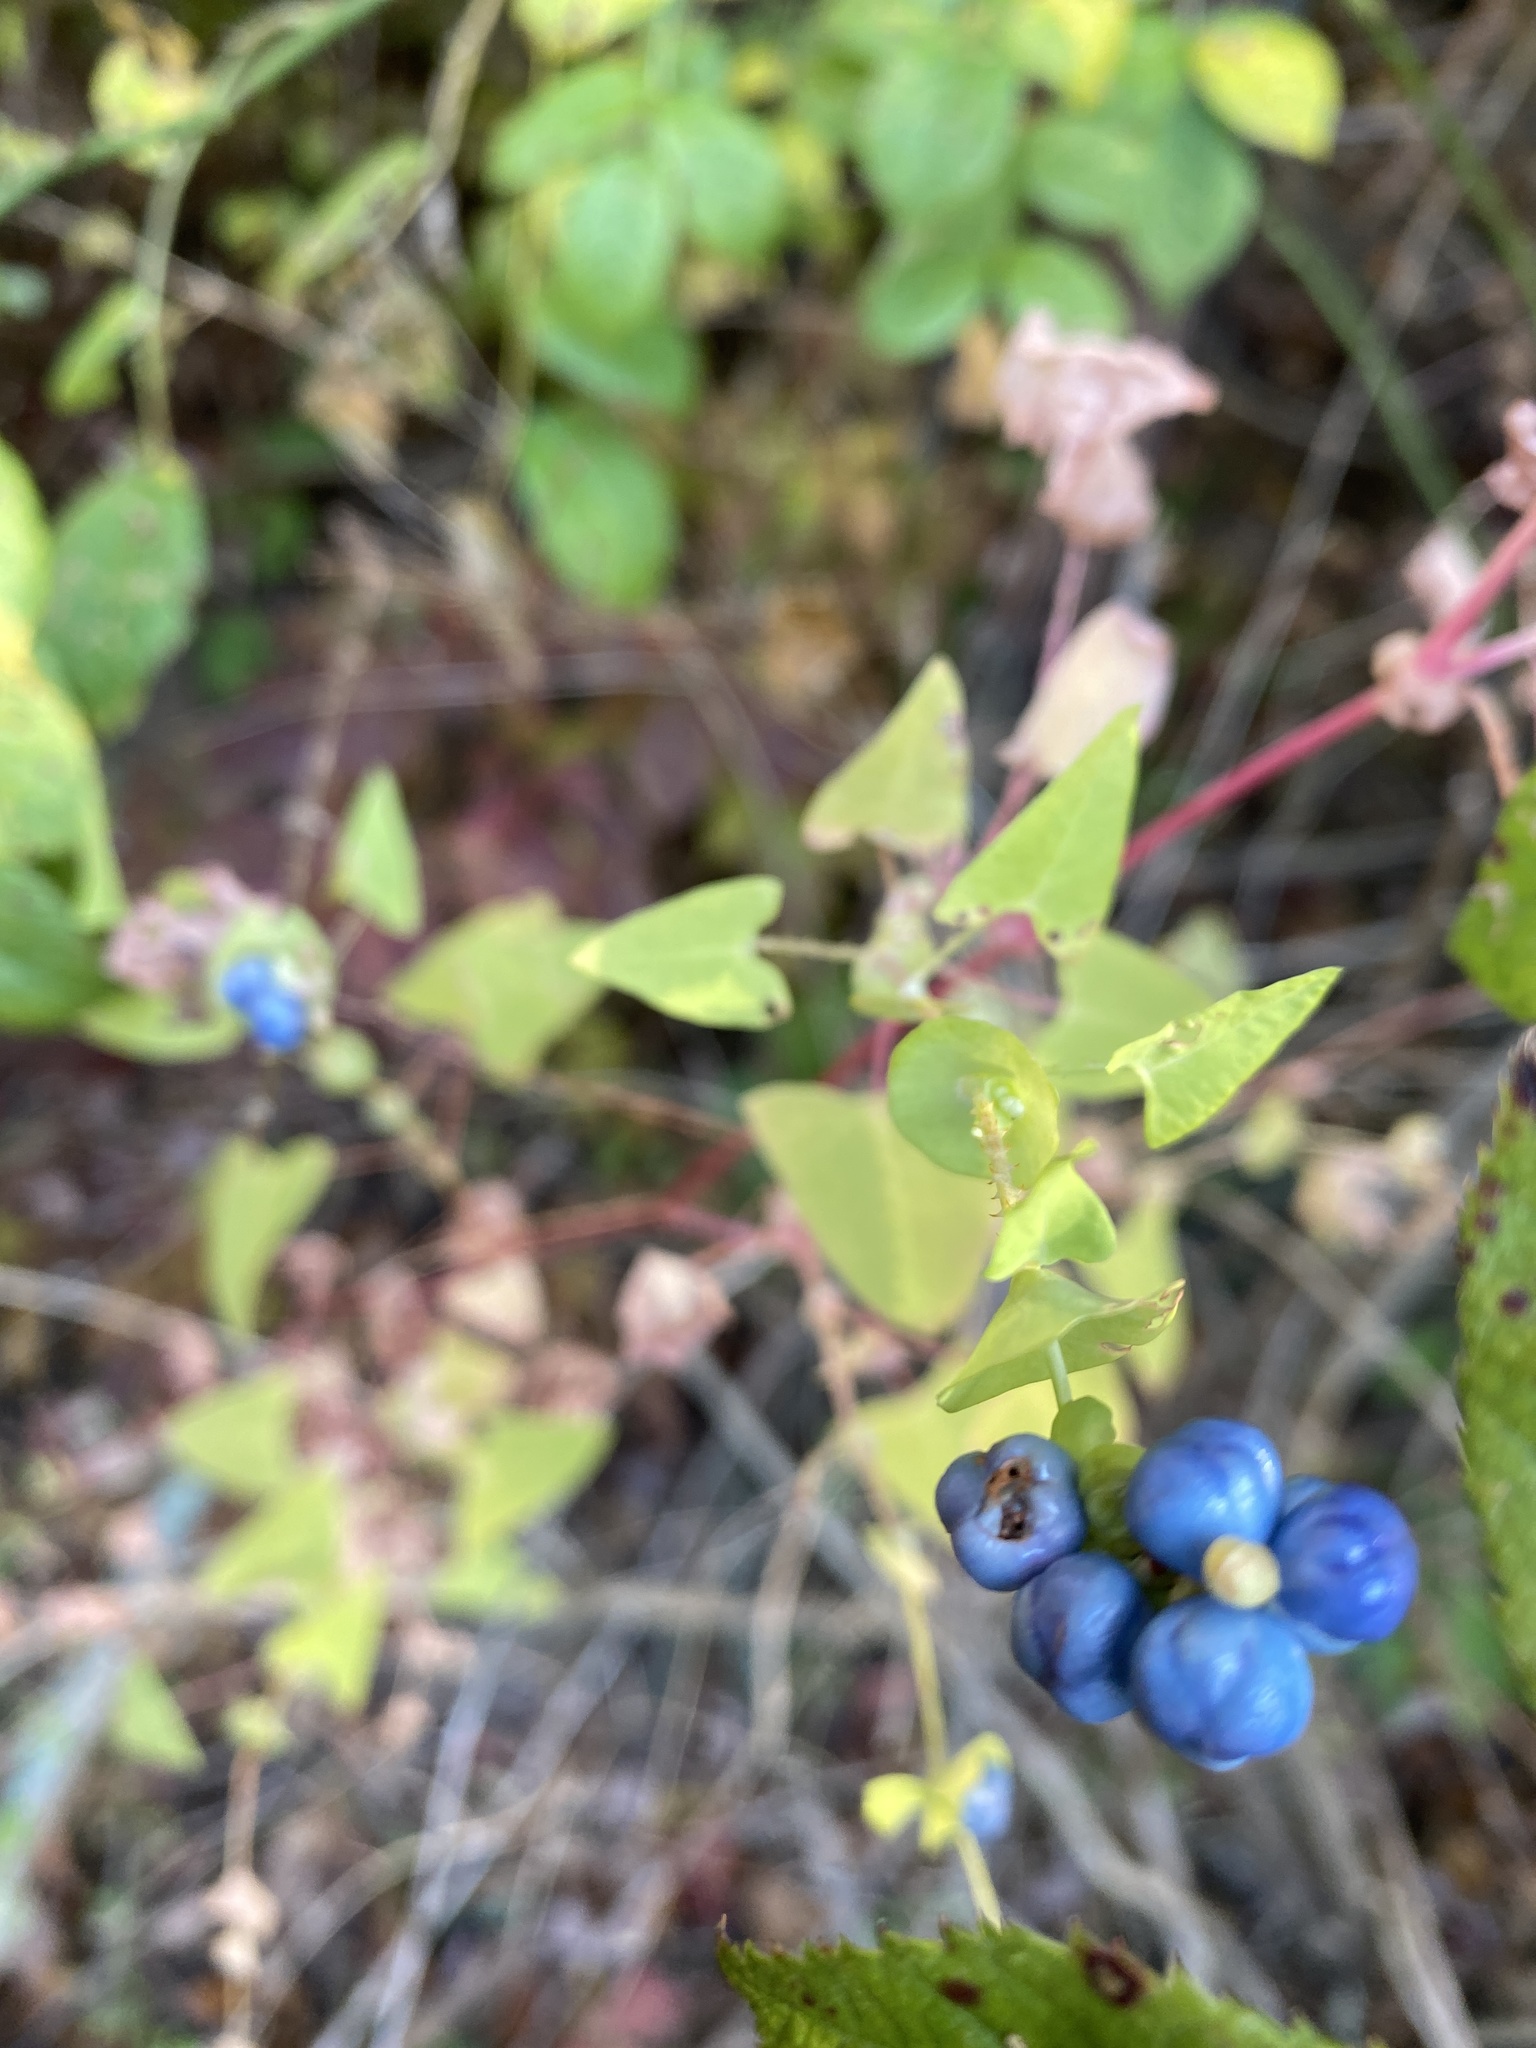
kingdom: Plantae
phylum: Tracheophyta
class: Magnoliopsida
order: Caryophyllales
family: Polygonaceae
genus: Persicaria
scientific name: Persicaria perfoliata
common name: Asiatic tearthumb
